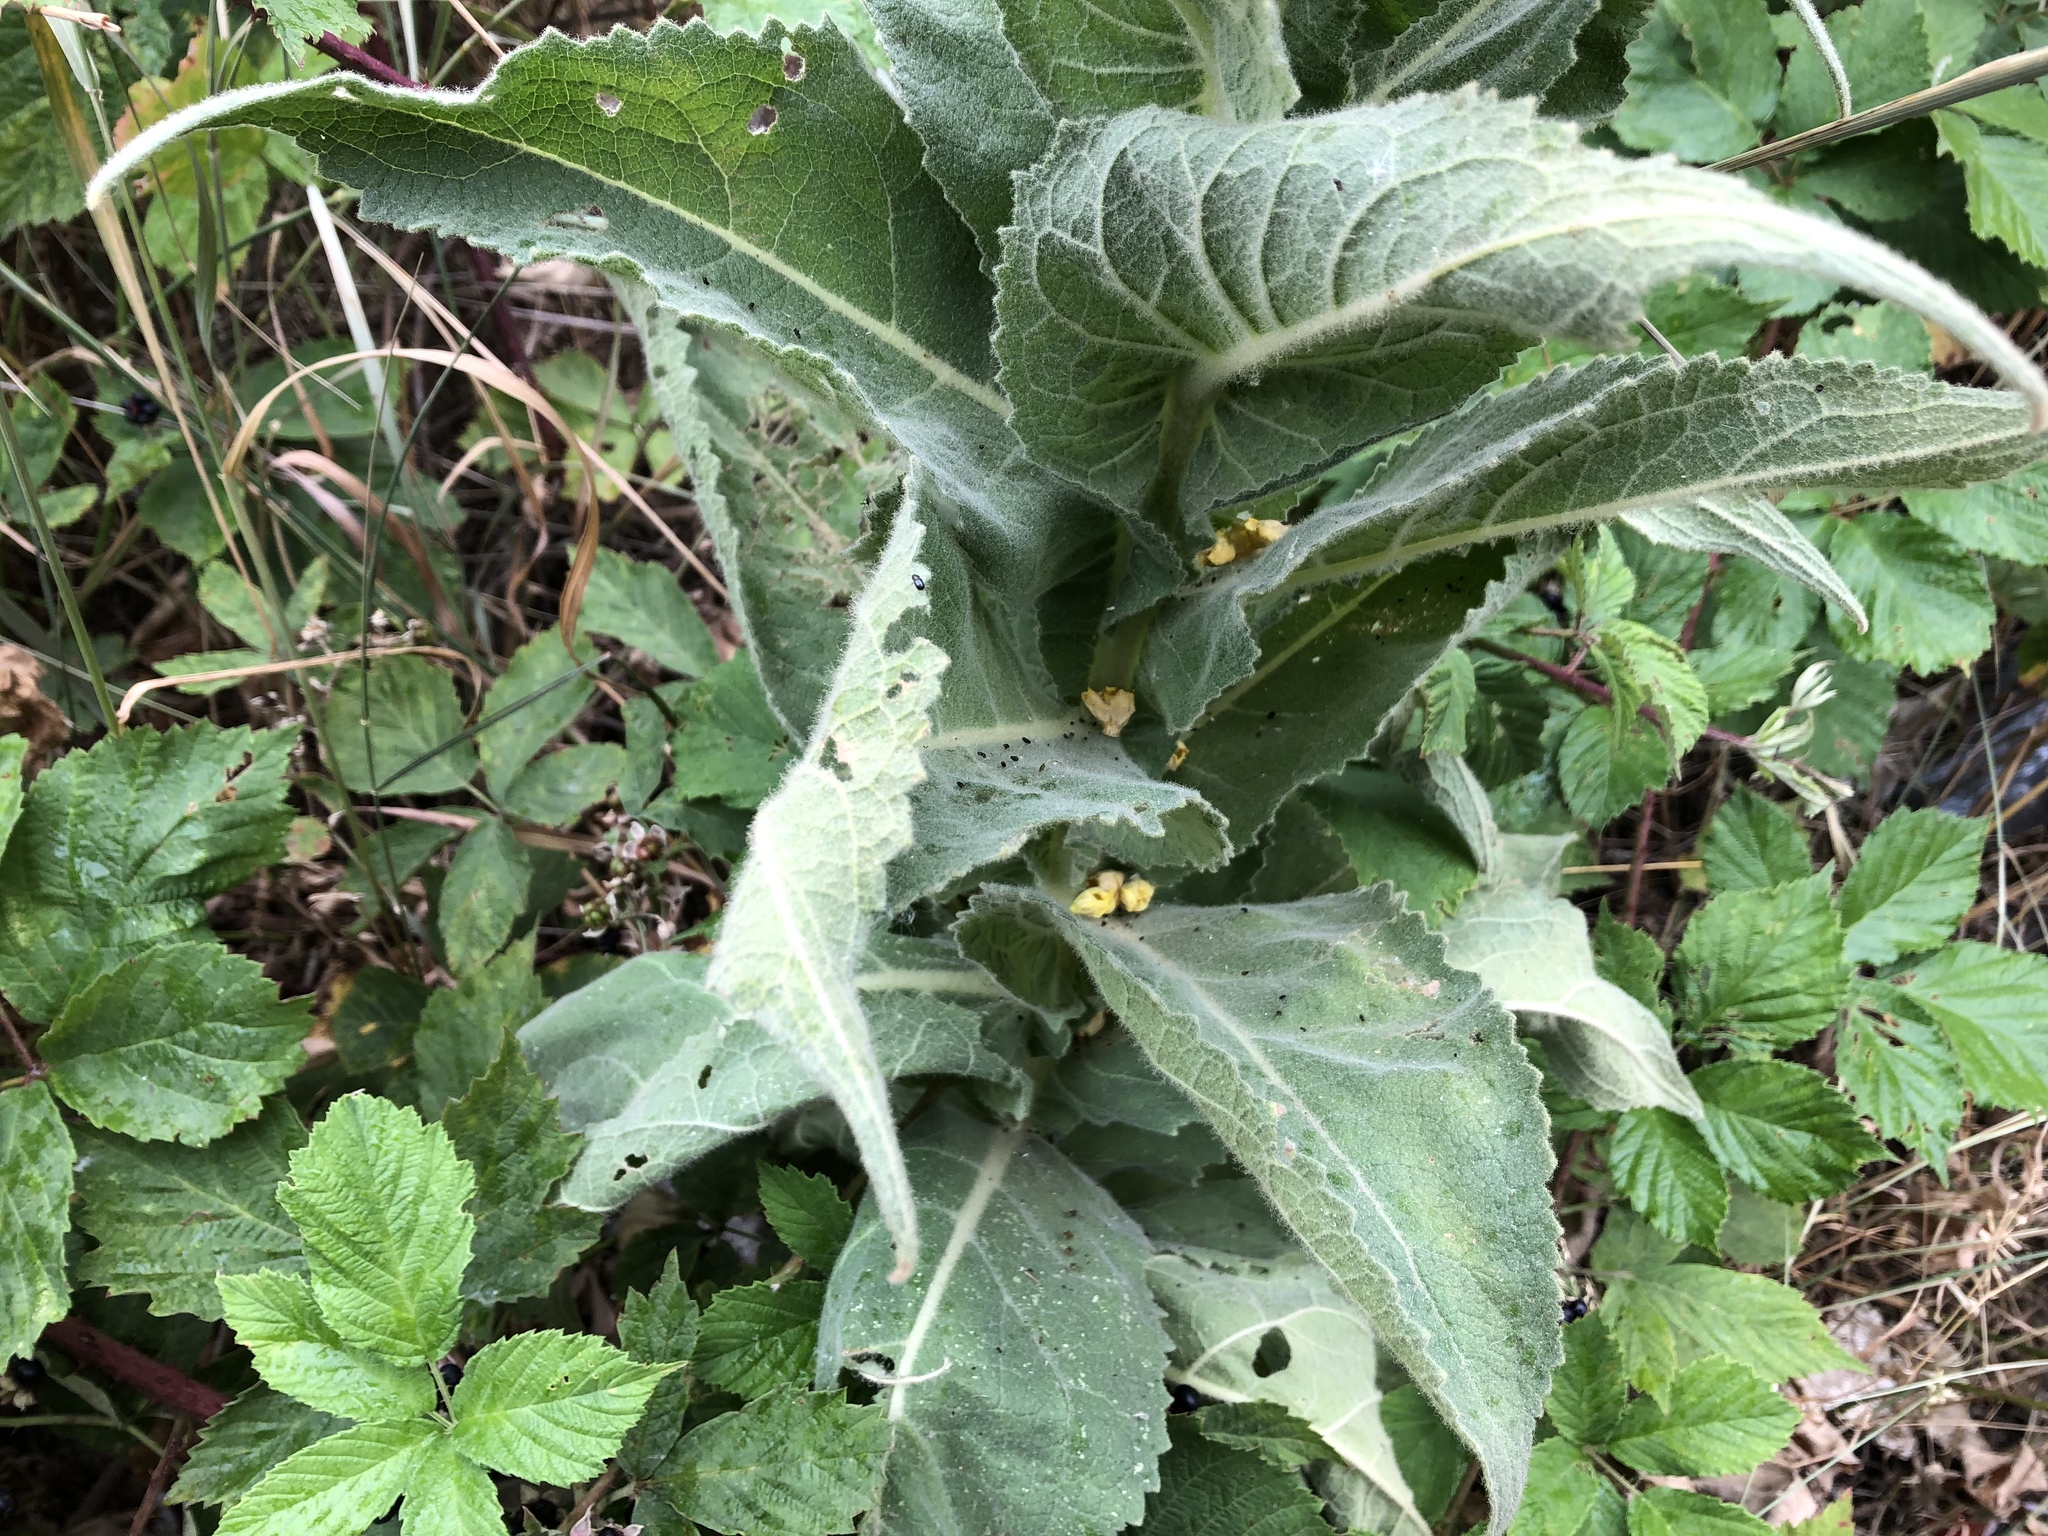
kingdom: Plantae
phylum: Tracheophyta
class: Magnoliopsida
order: Lamiales
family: Scrophulariaceae
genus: Verbascum
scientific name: Verbascum thapsus
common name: Common mullein
